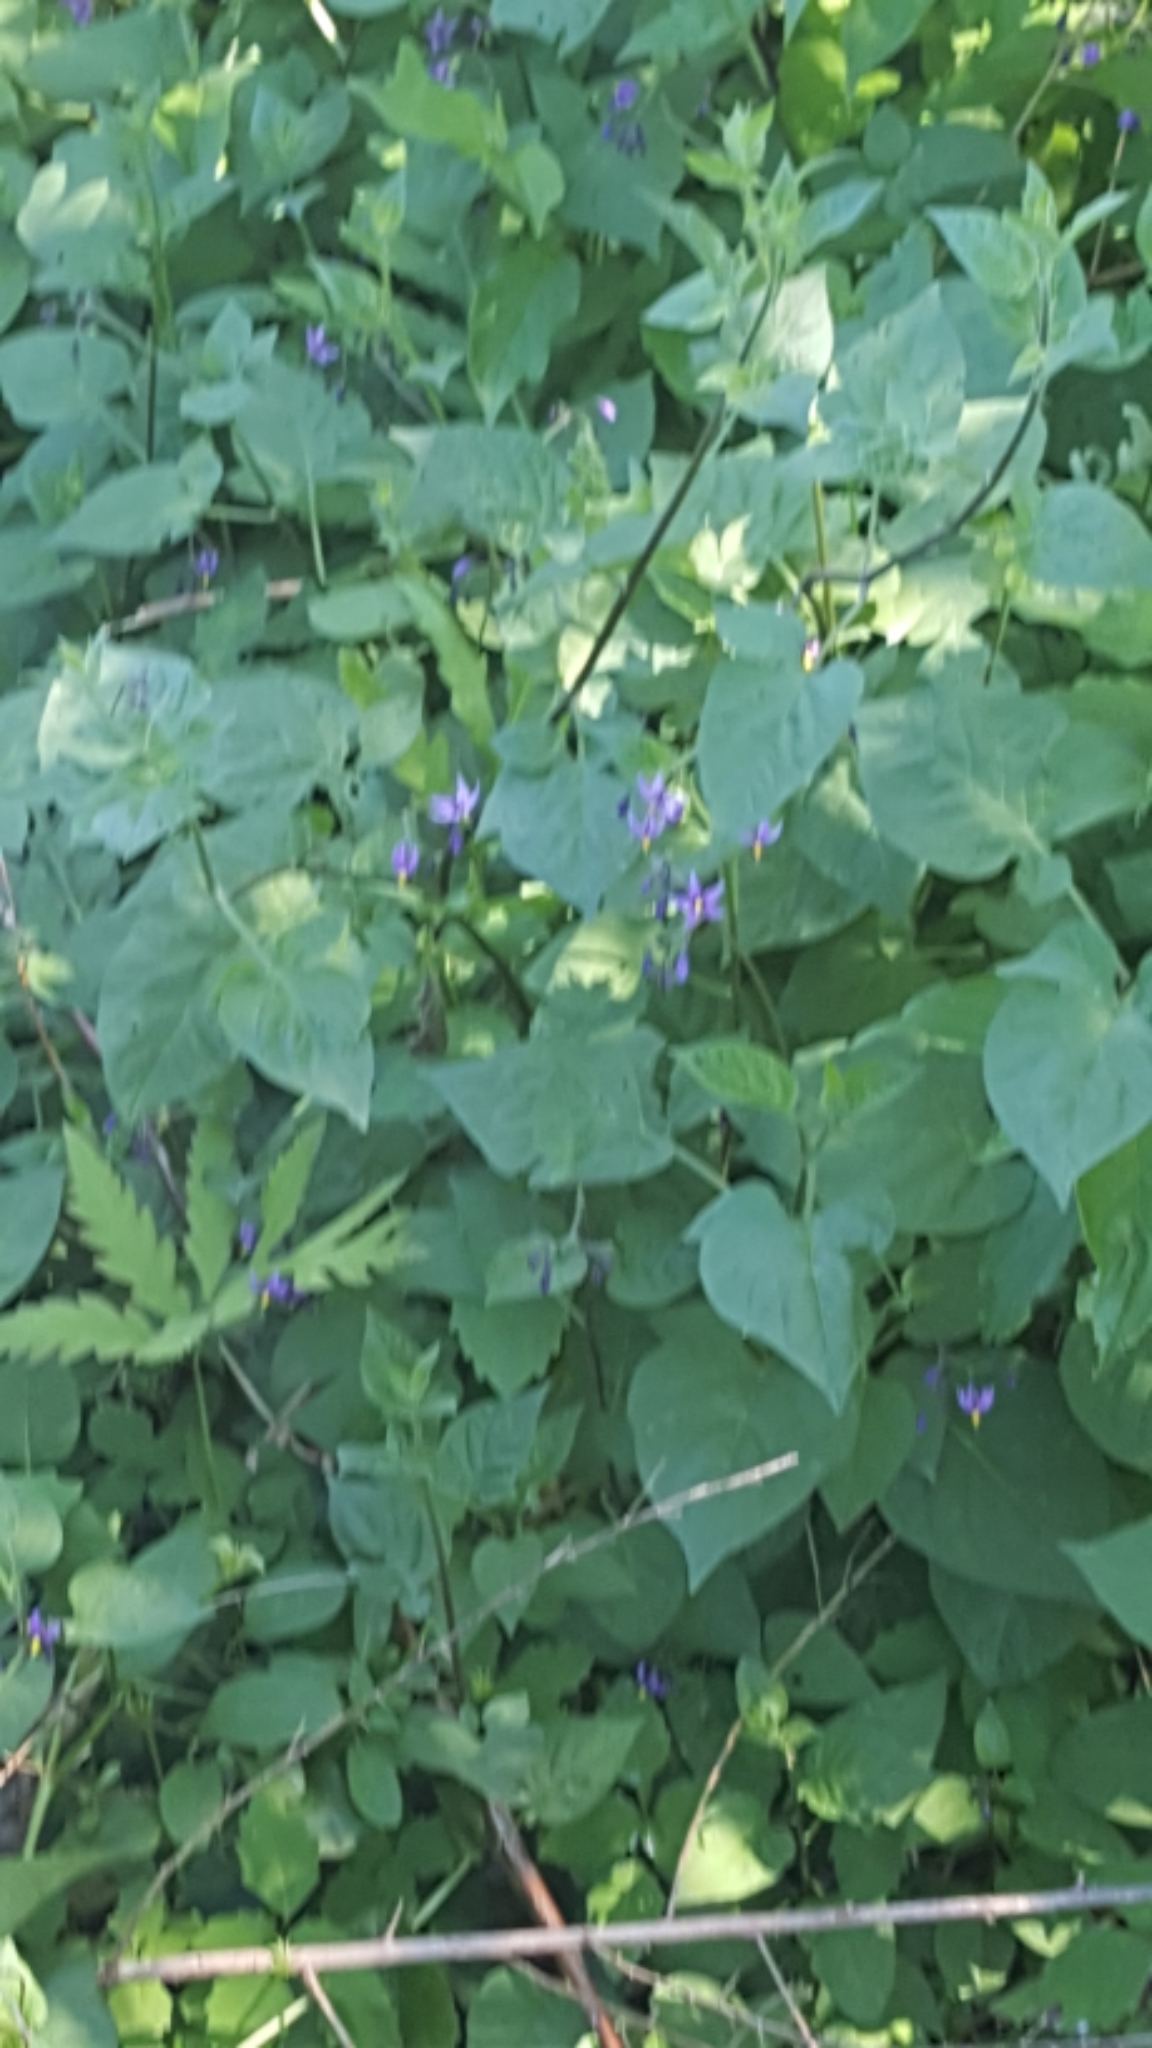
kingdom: Plantae
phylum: Tracheophyta
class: Magnoliopsida
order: Solanales
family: Solanaceae
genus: Solanum
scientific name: Solanum dulcamara
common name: Climbing nightshade
